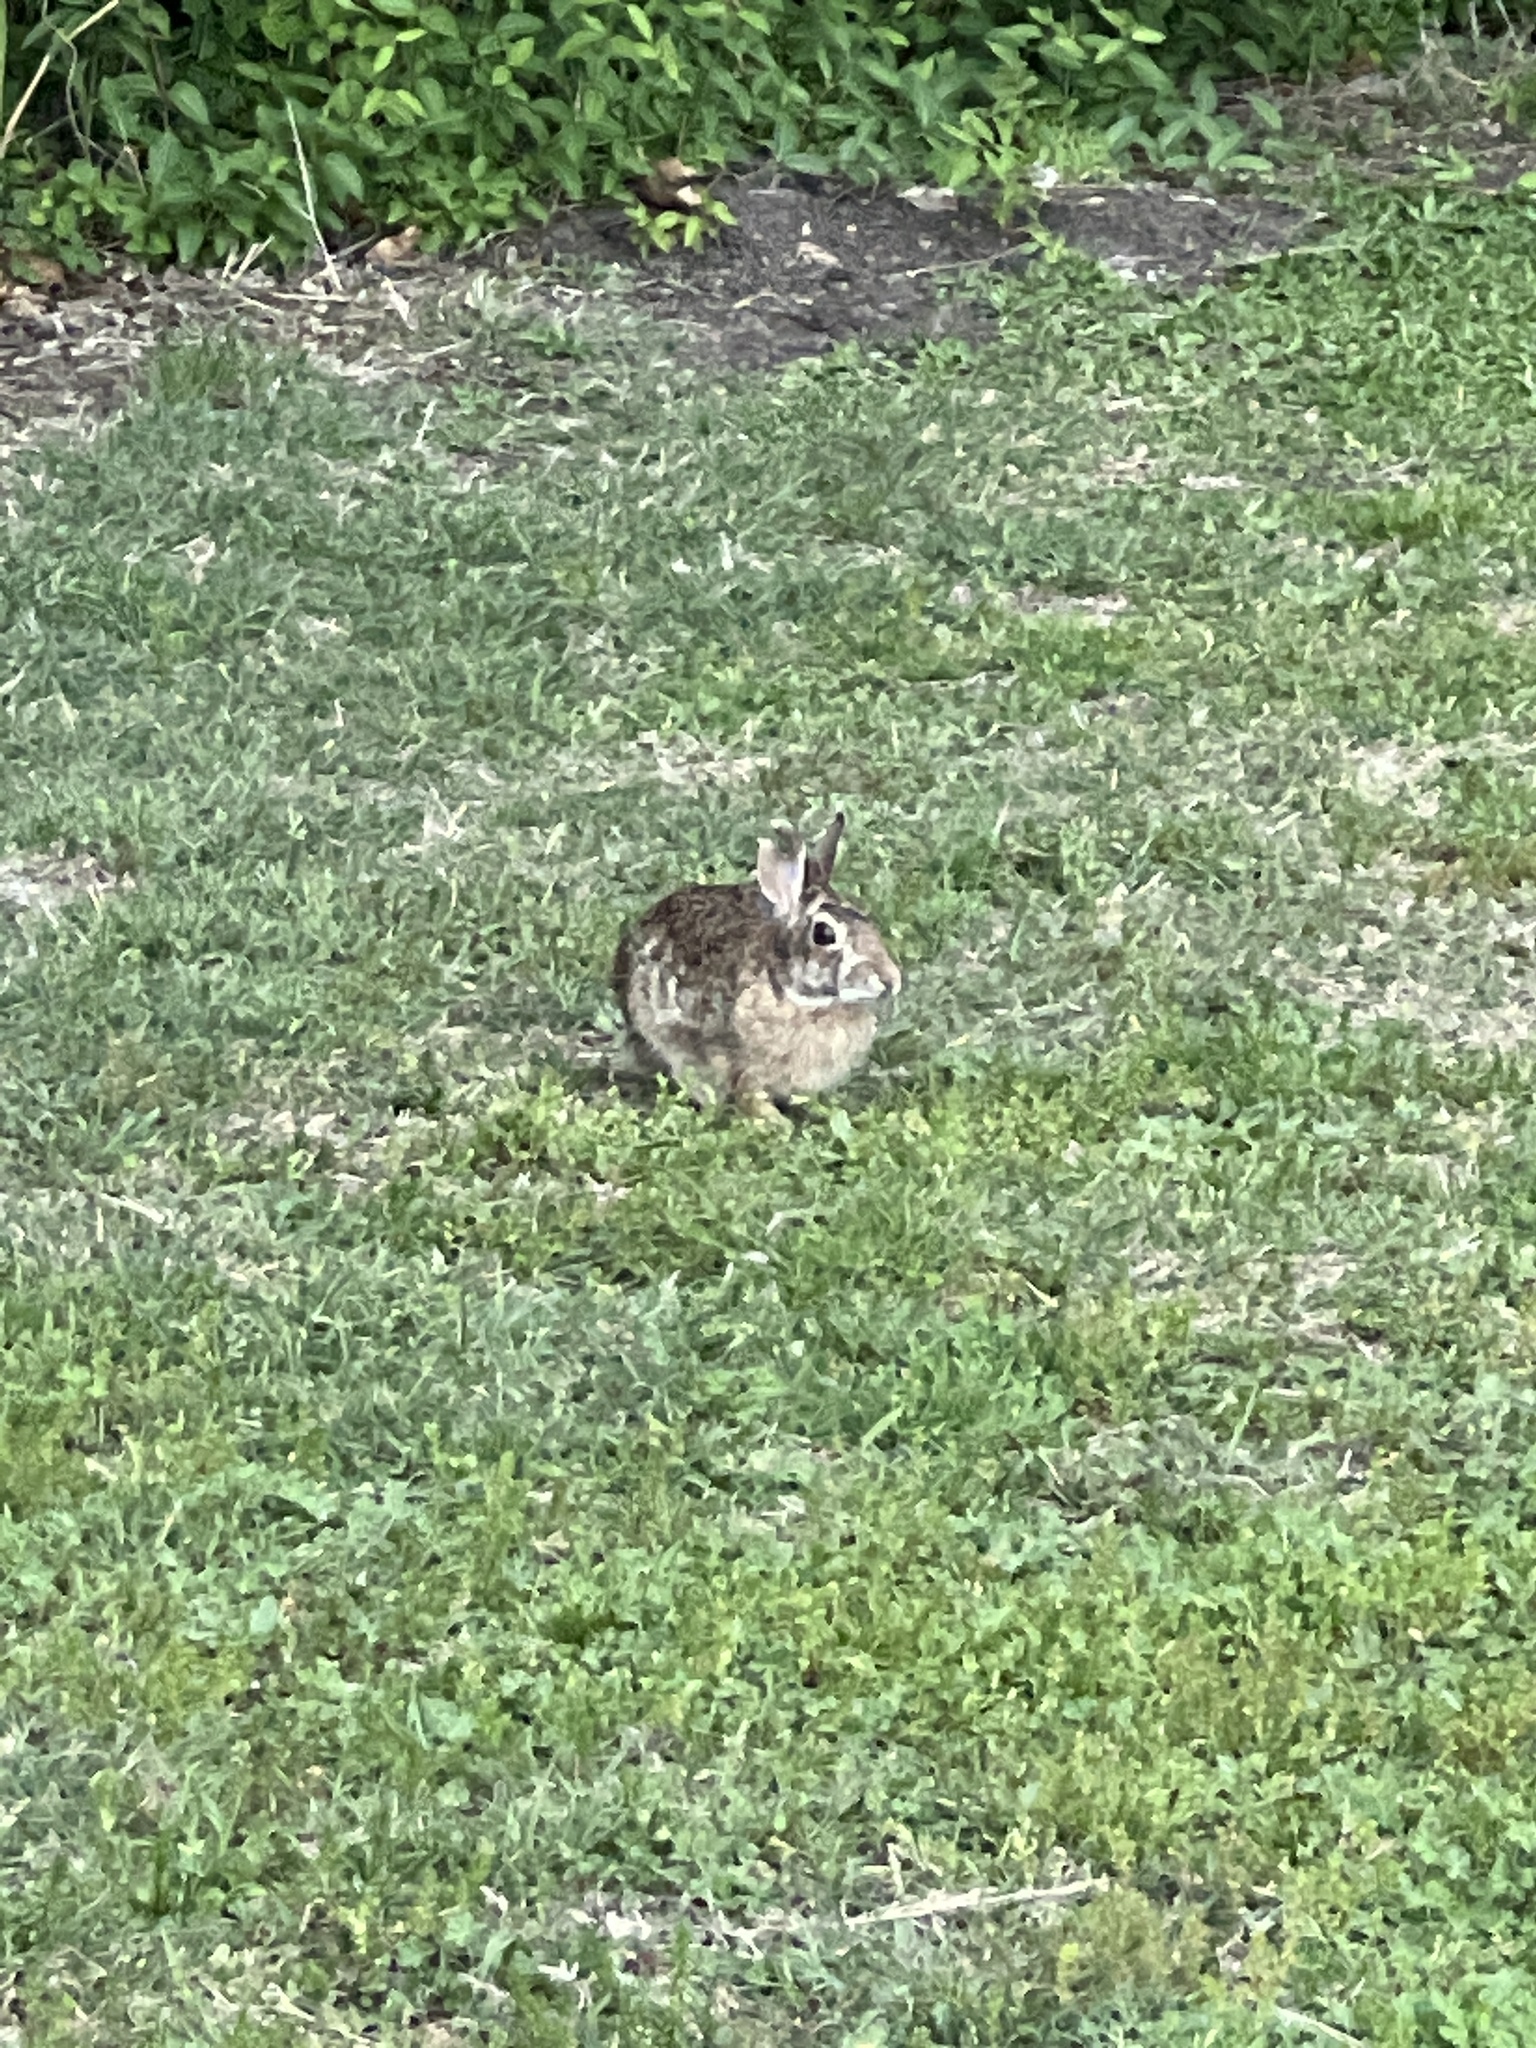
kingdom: Animalia
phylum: Chordata
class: Mammalia
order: Lagomorpha
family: Leporidae
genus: Sylvilagus
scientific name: Sylvilagus floridanus
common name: Eastern cottontail
